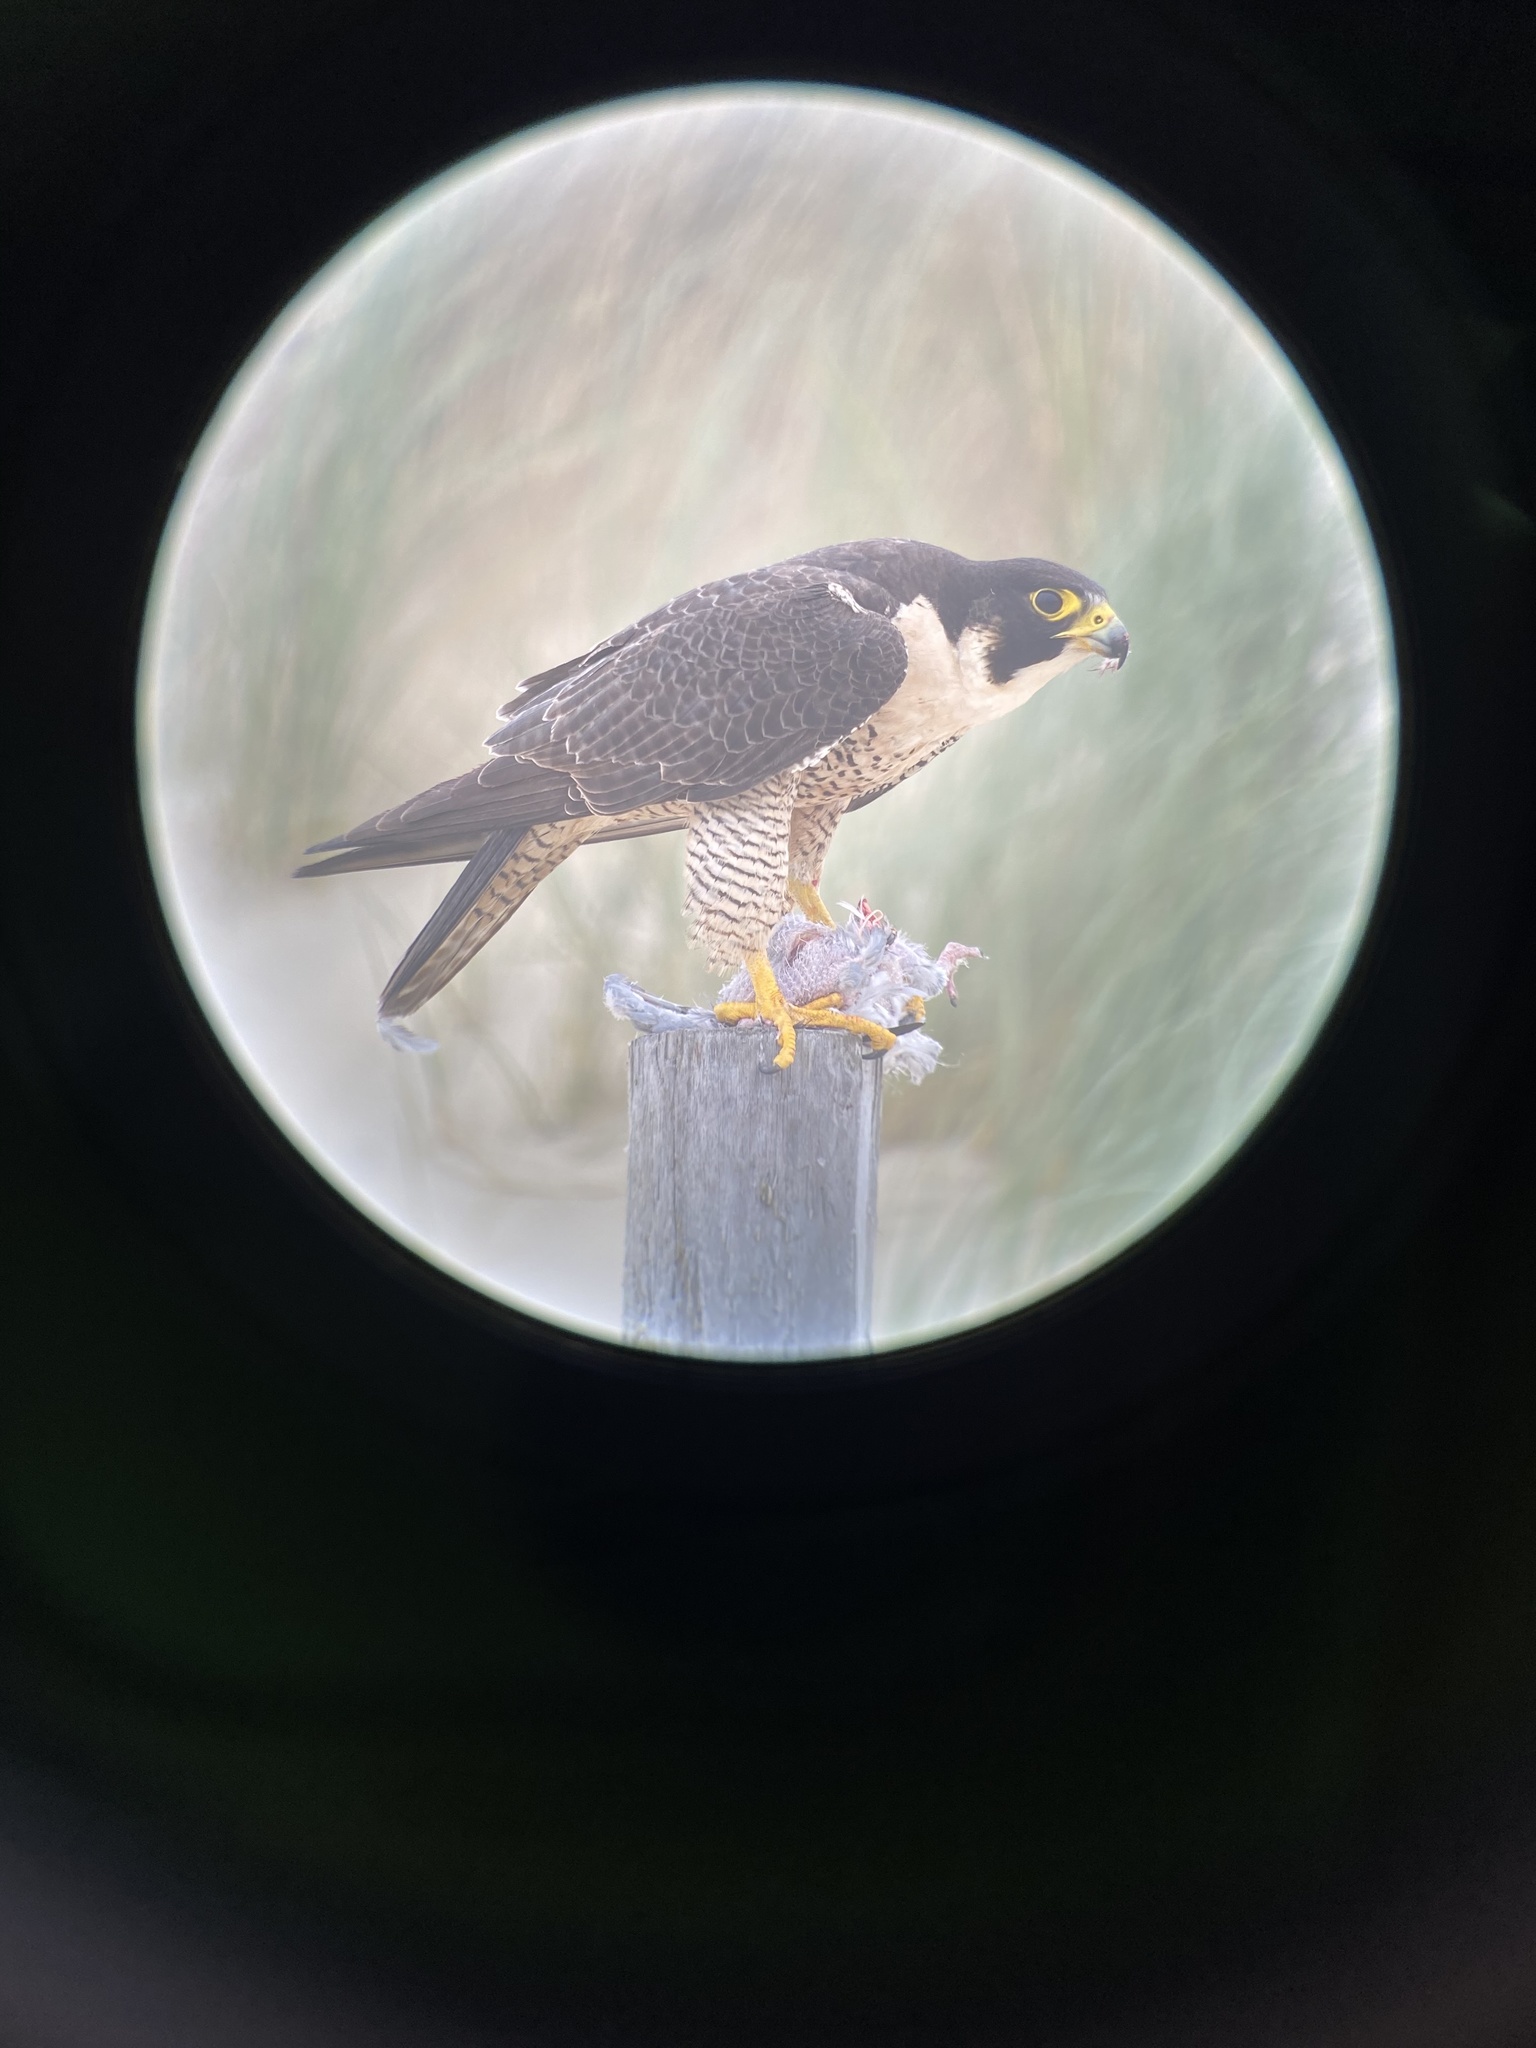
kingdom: Animalia
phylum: Chordata
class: Aves
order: Falconiformes
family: Falconidae
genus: Falco
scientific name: Falco peregrinus
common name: Peregrine falcon
